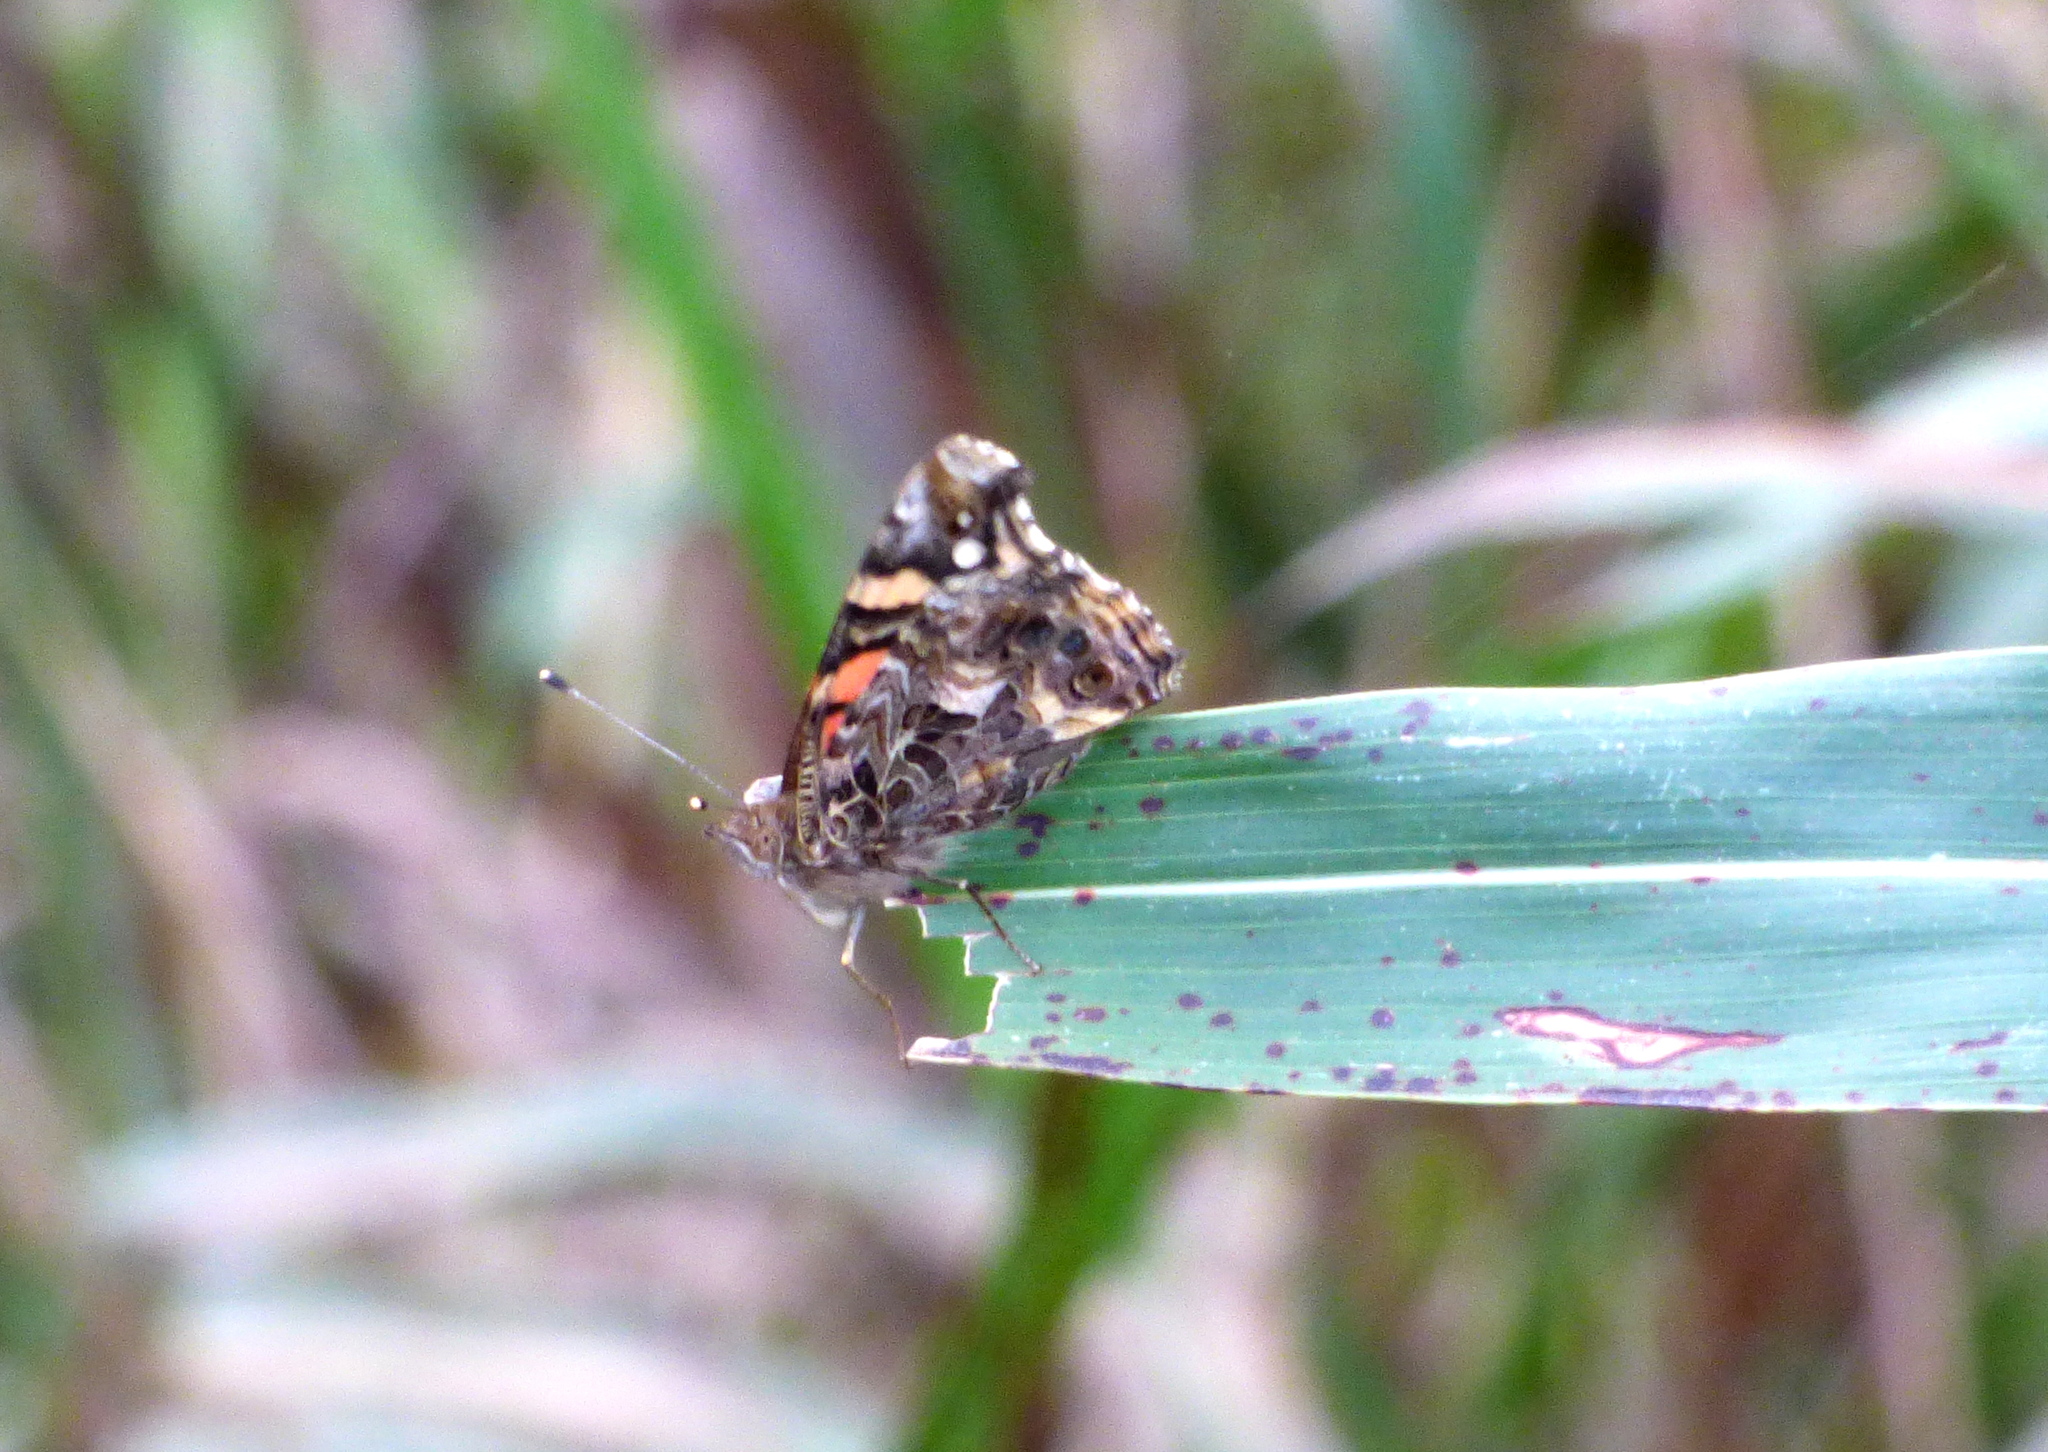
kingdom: Animalia
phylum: Arthropoda
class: Insecta
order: Lepidoptera
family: Nymphalidae
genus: Vanessa
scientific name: Vanessa carye
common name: Subtropical lady
